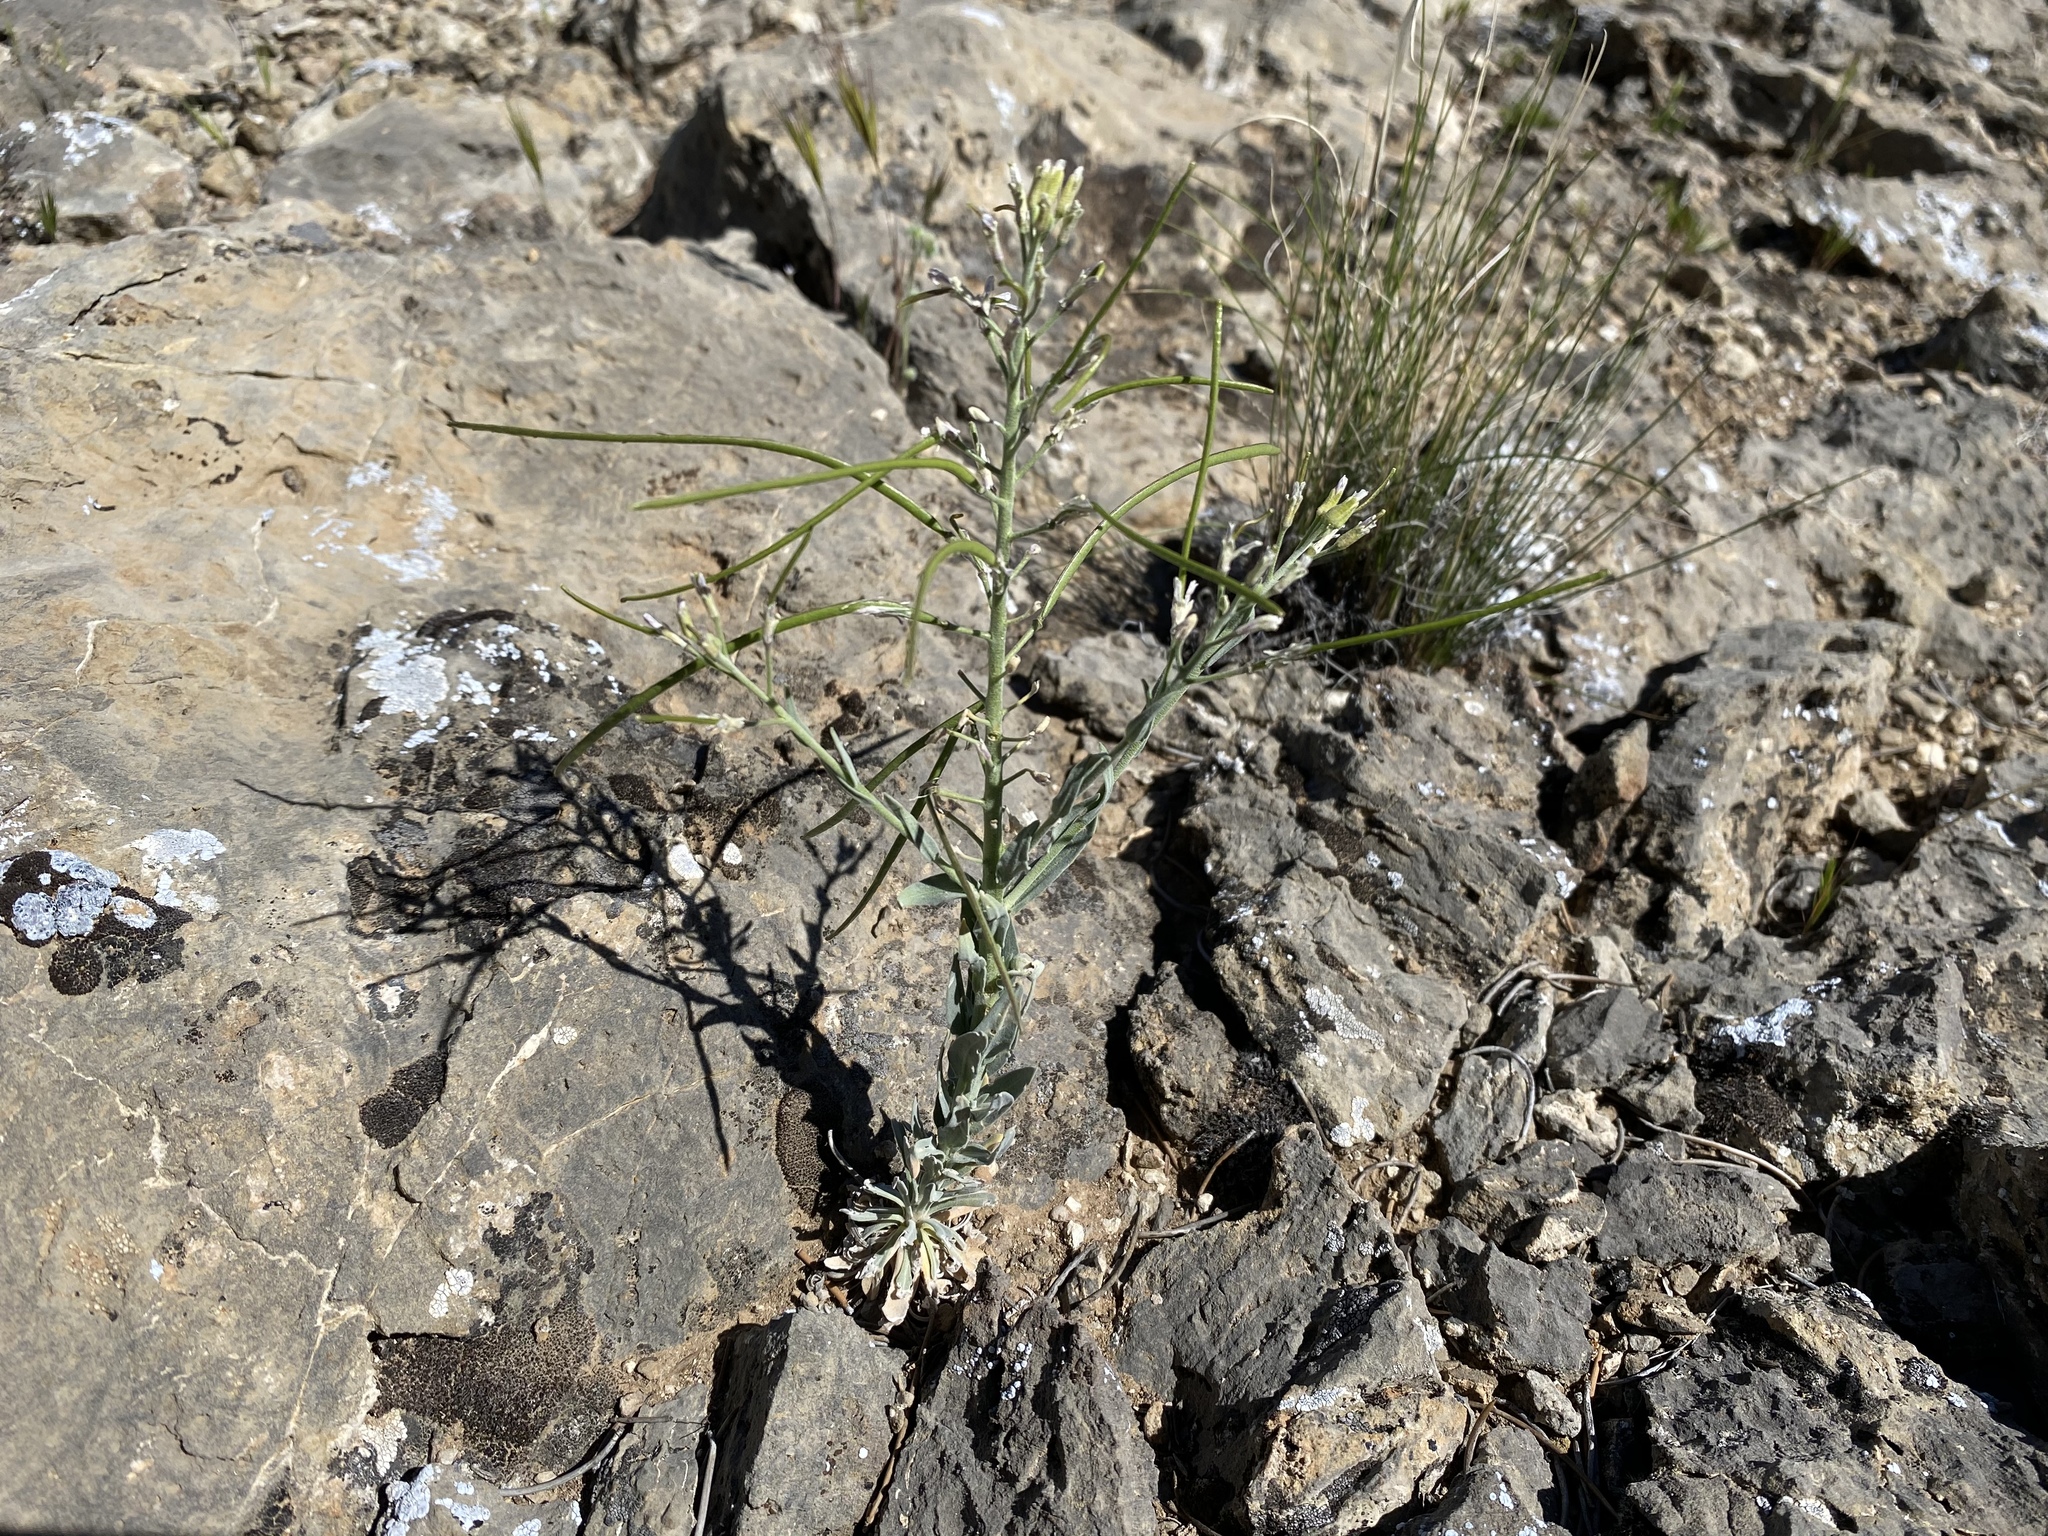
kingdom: Plantae
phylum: Tracheophyta
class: Magnoliopsida
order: Brassicales
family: Brassicaceae
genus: Boechera
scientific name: Boechera shockleyi
